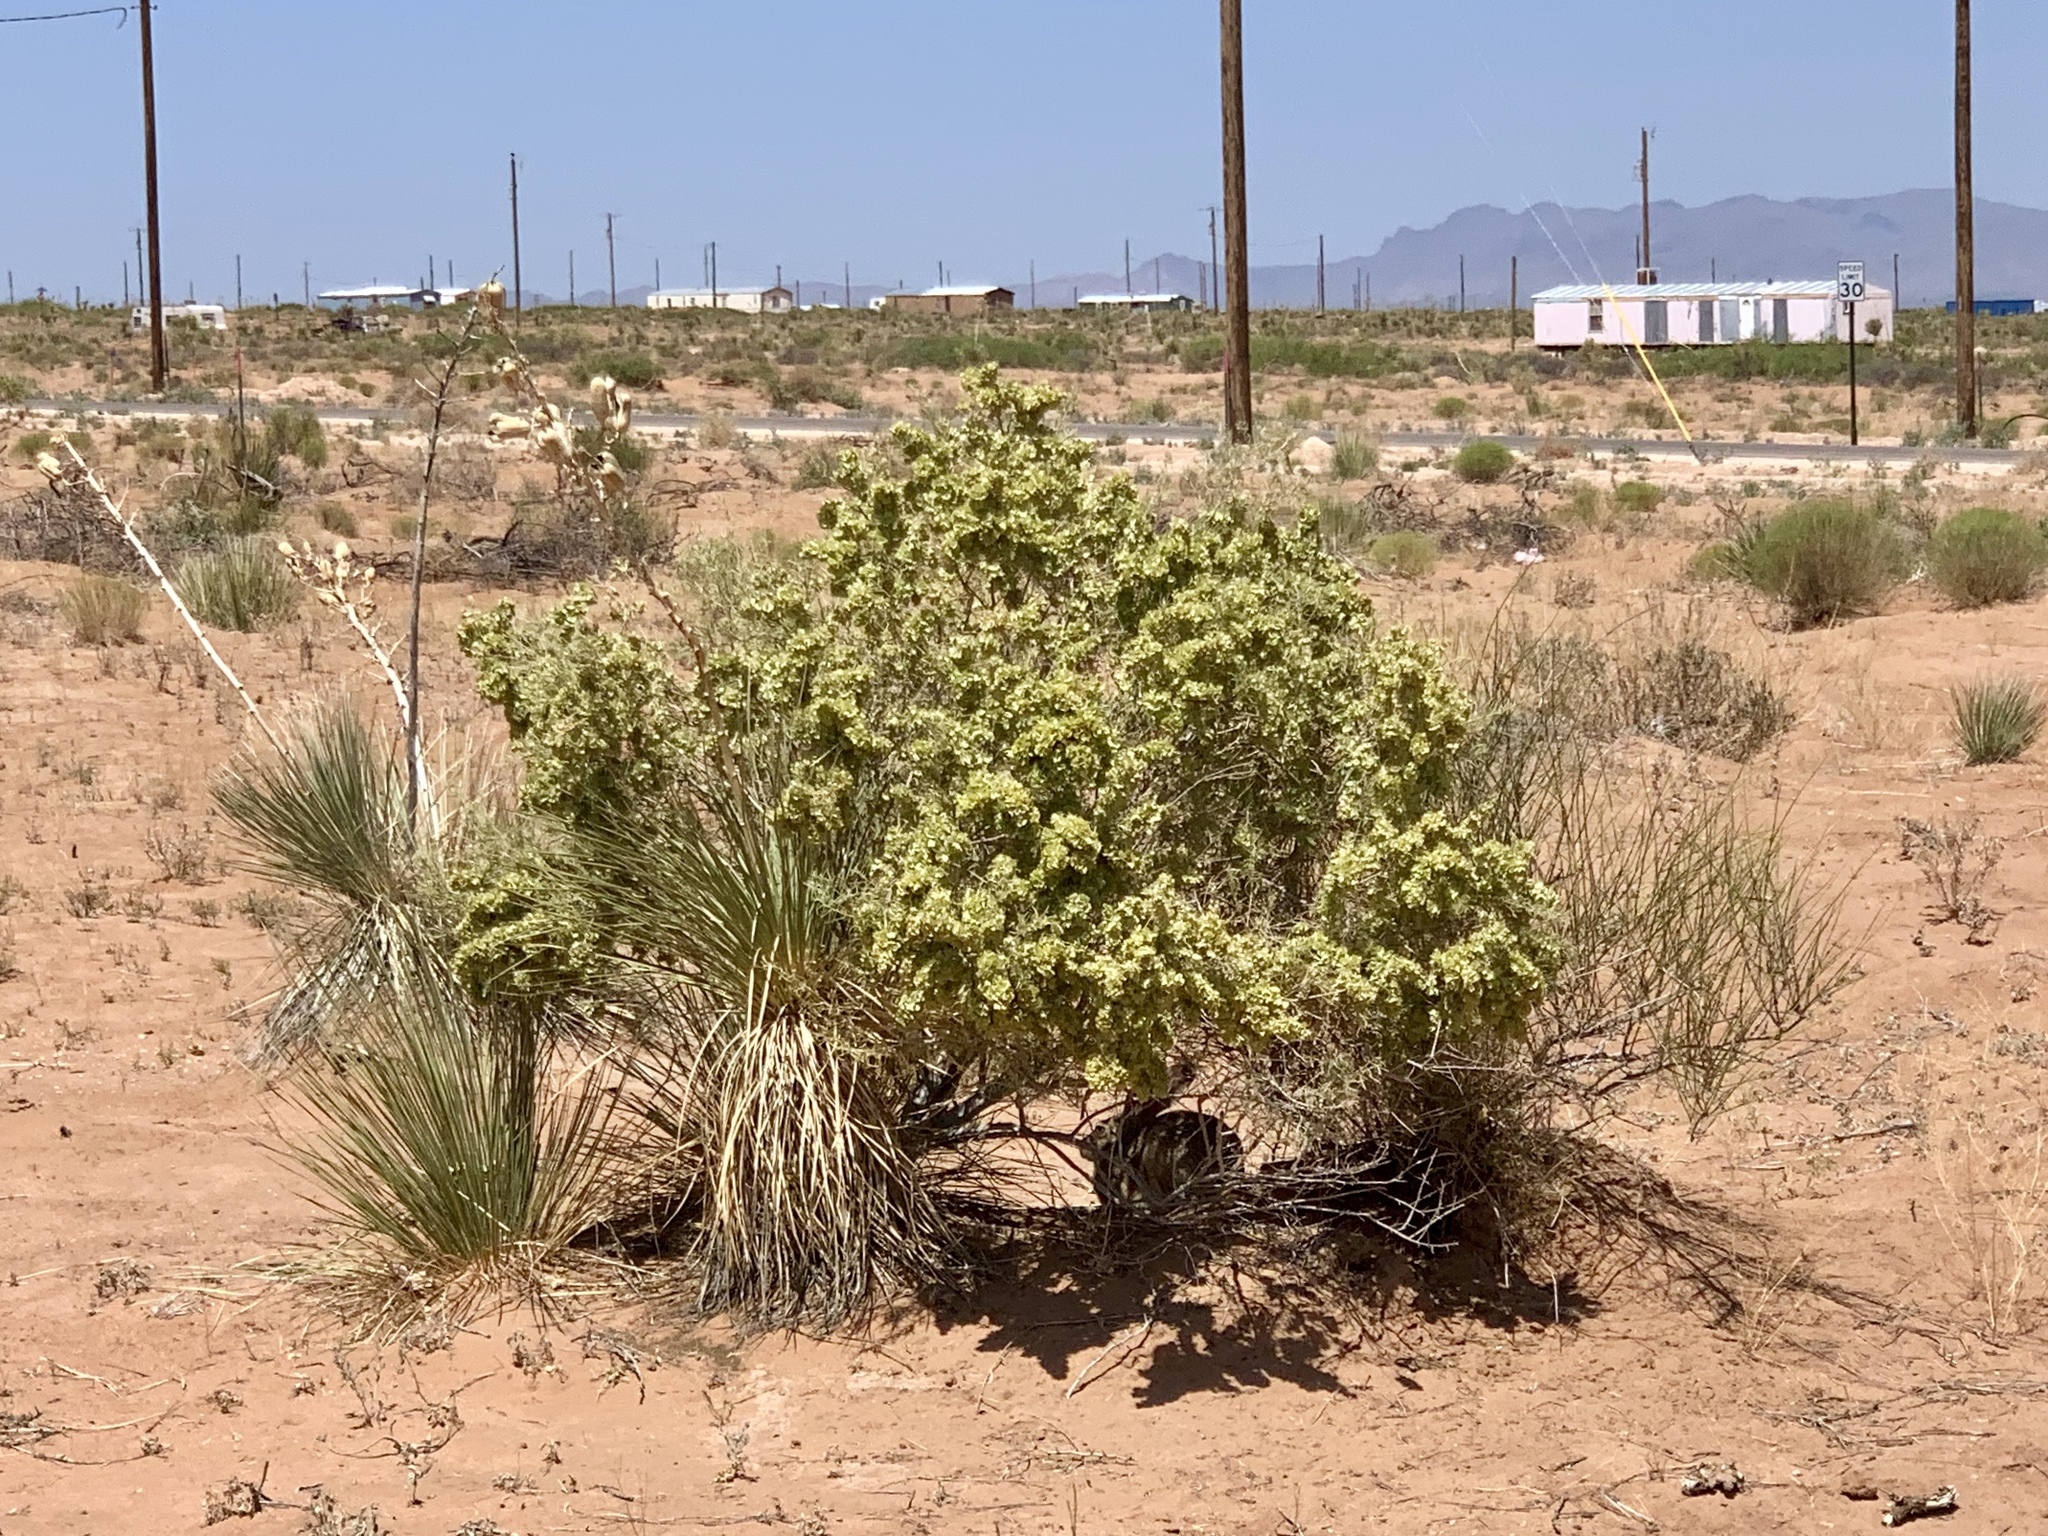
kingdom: Plantae
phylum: Tracheophyta
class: Magnoliopsida
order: Caryophyllales
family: Amaranthaceae
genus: Atriplex
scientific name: Atriplex canescens
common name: Four-wing saltbush
